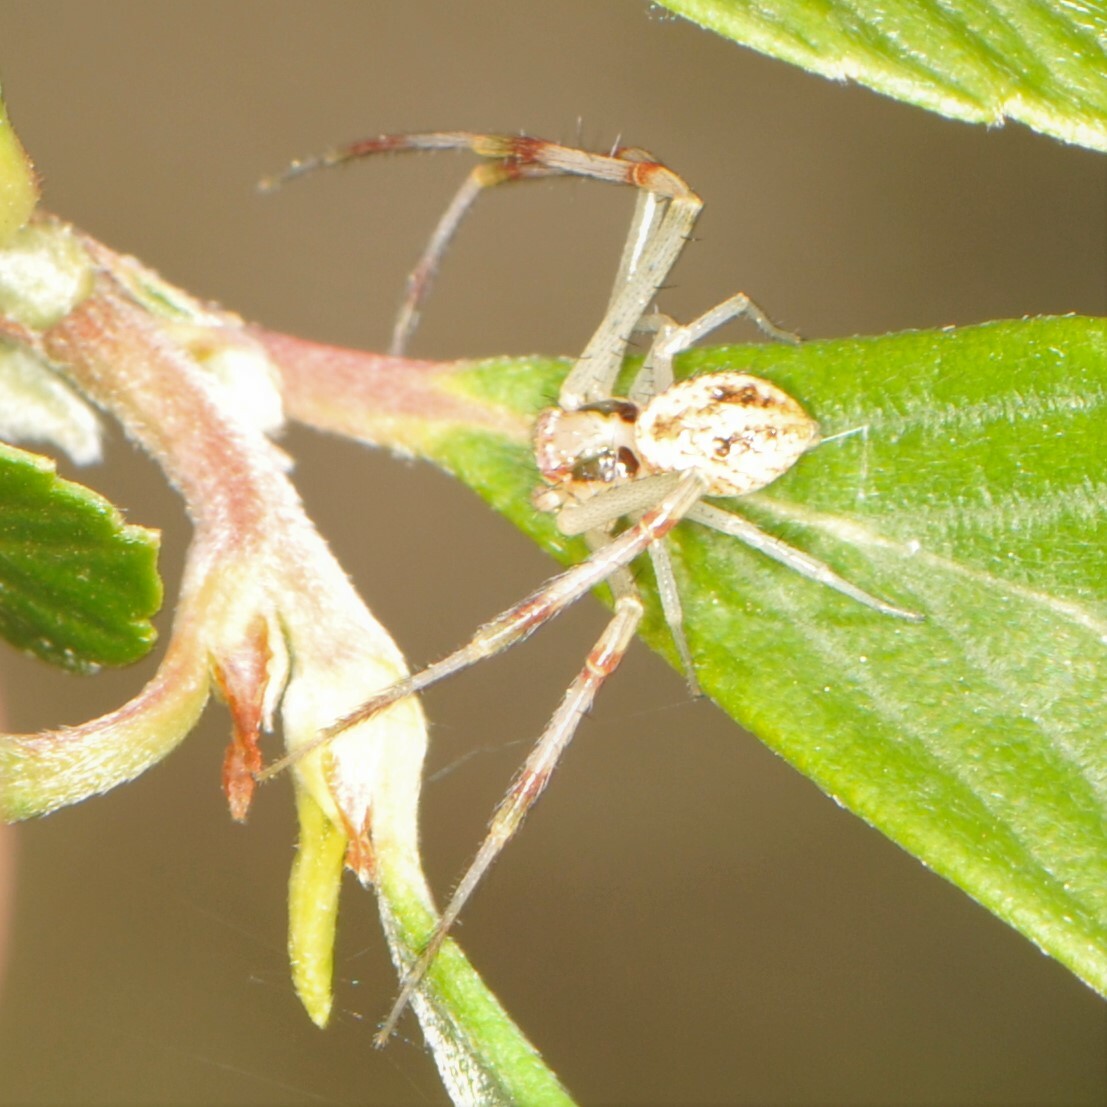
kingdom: Animalia
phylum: Arthropoda
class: Arachnida
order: Araneae
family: Thomisidae
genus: Mecaphesa
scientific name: Mecaphesa
